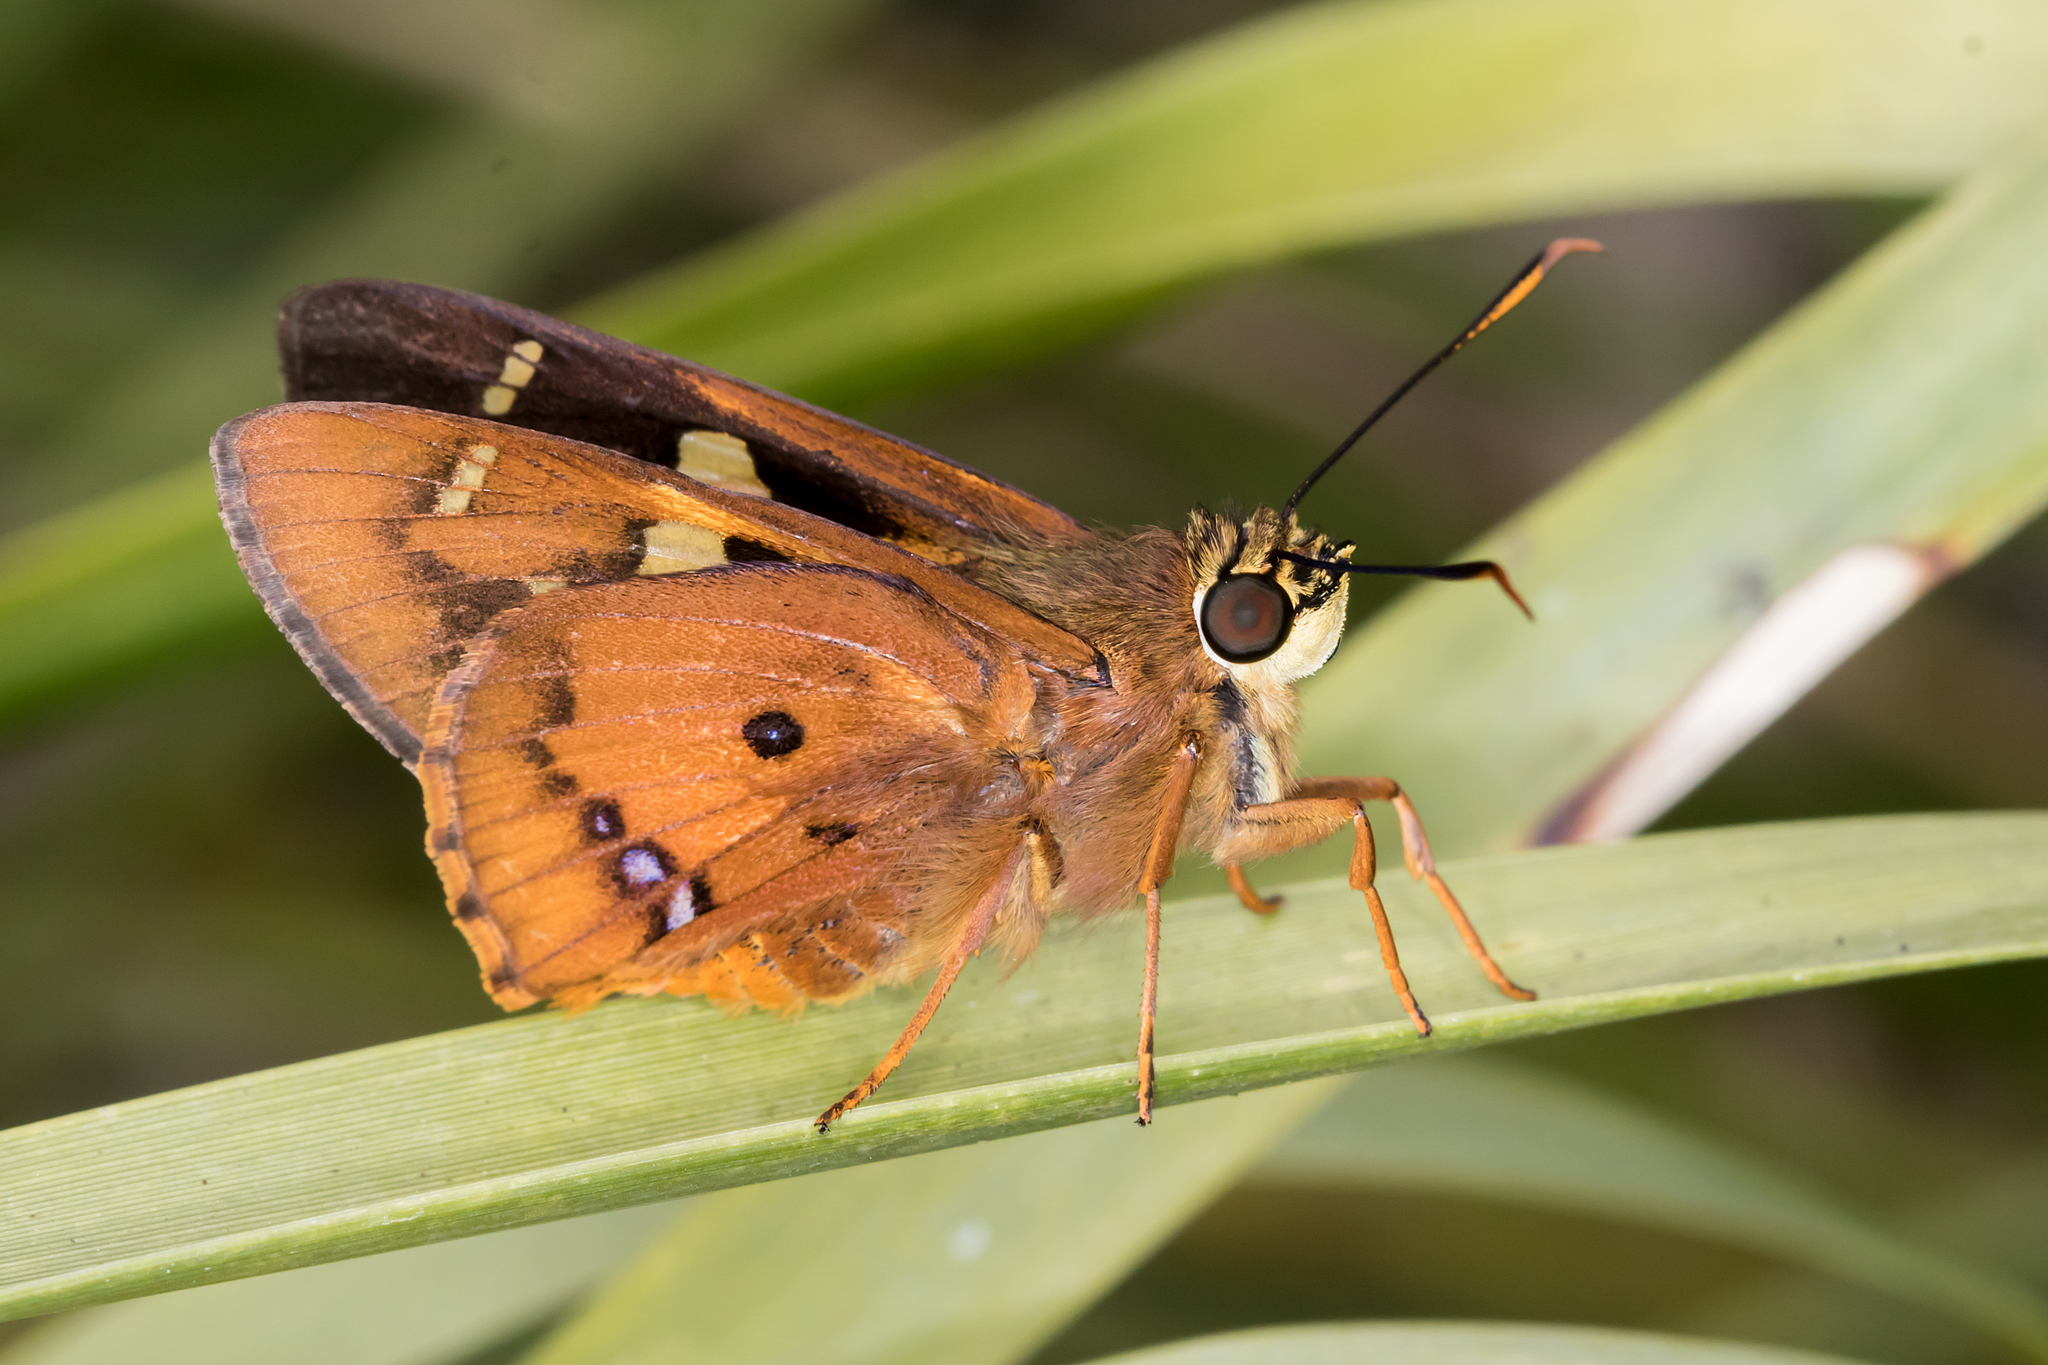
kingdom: Animalia
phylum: Arthropoda
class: Insecta
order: Lepidoptera
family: Hesperiidae
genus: Trapezites
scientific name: Trapezites symmomus
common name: Splendid ochre
